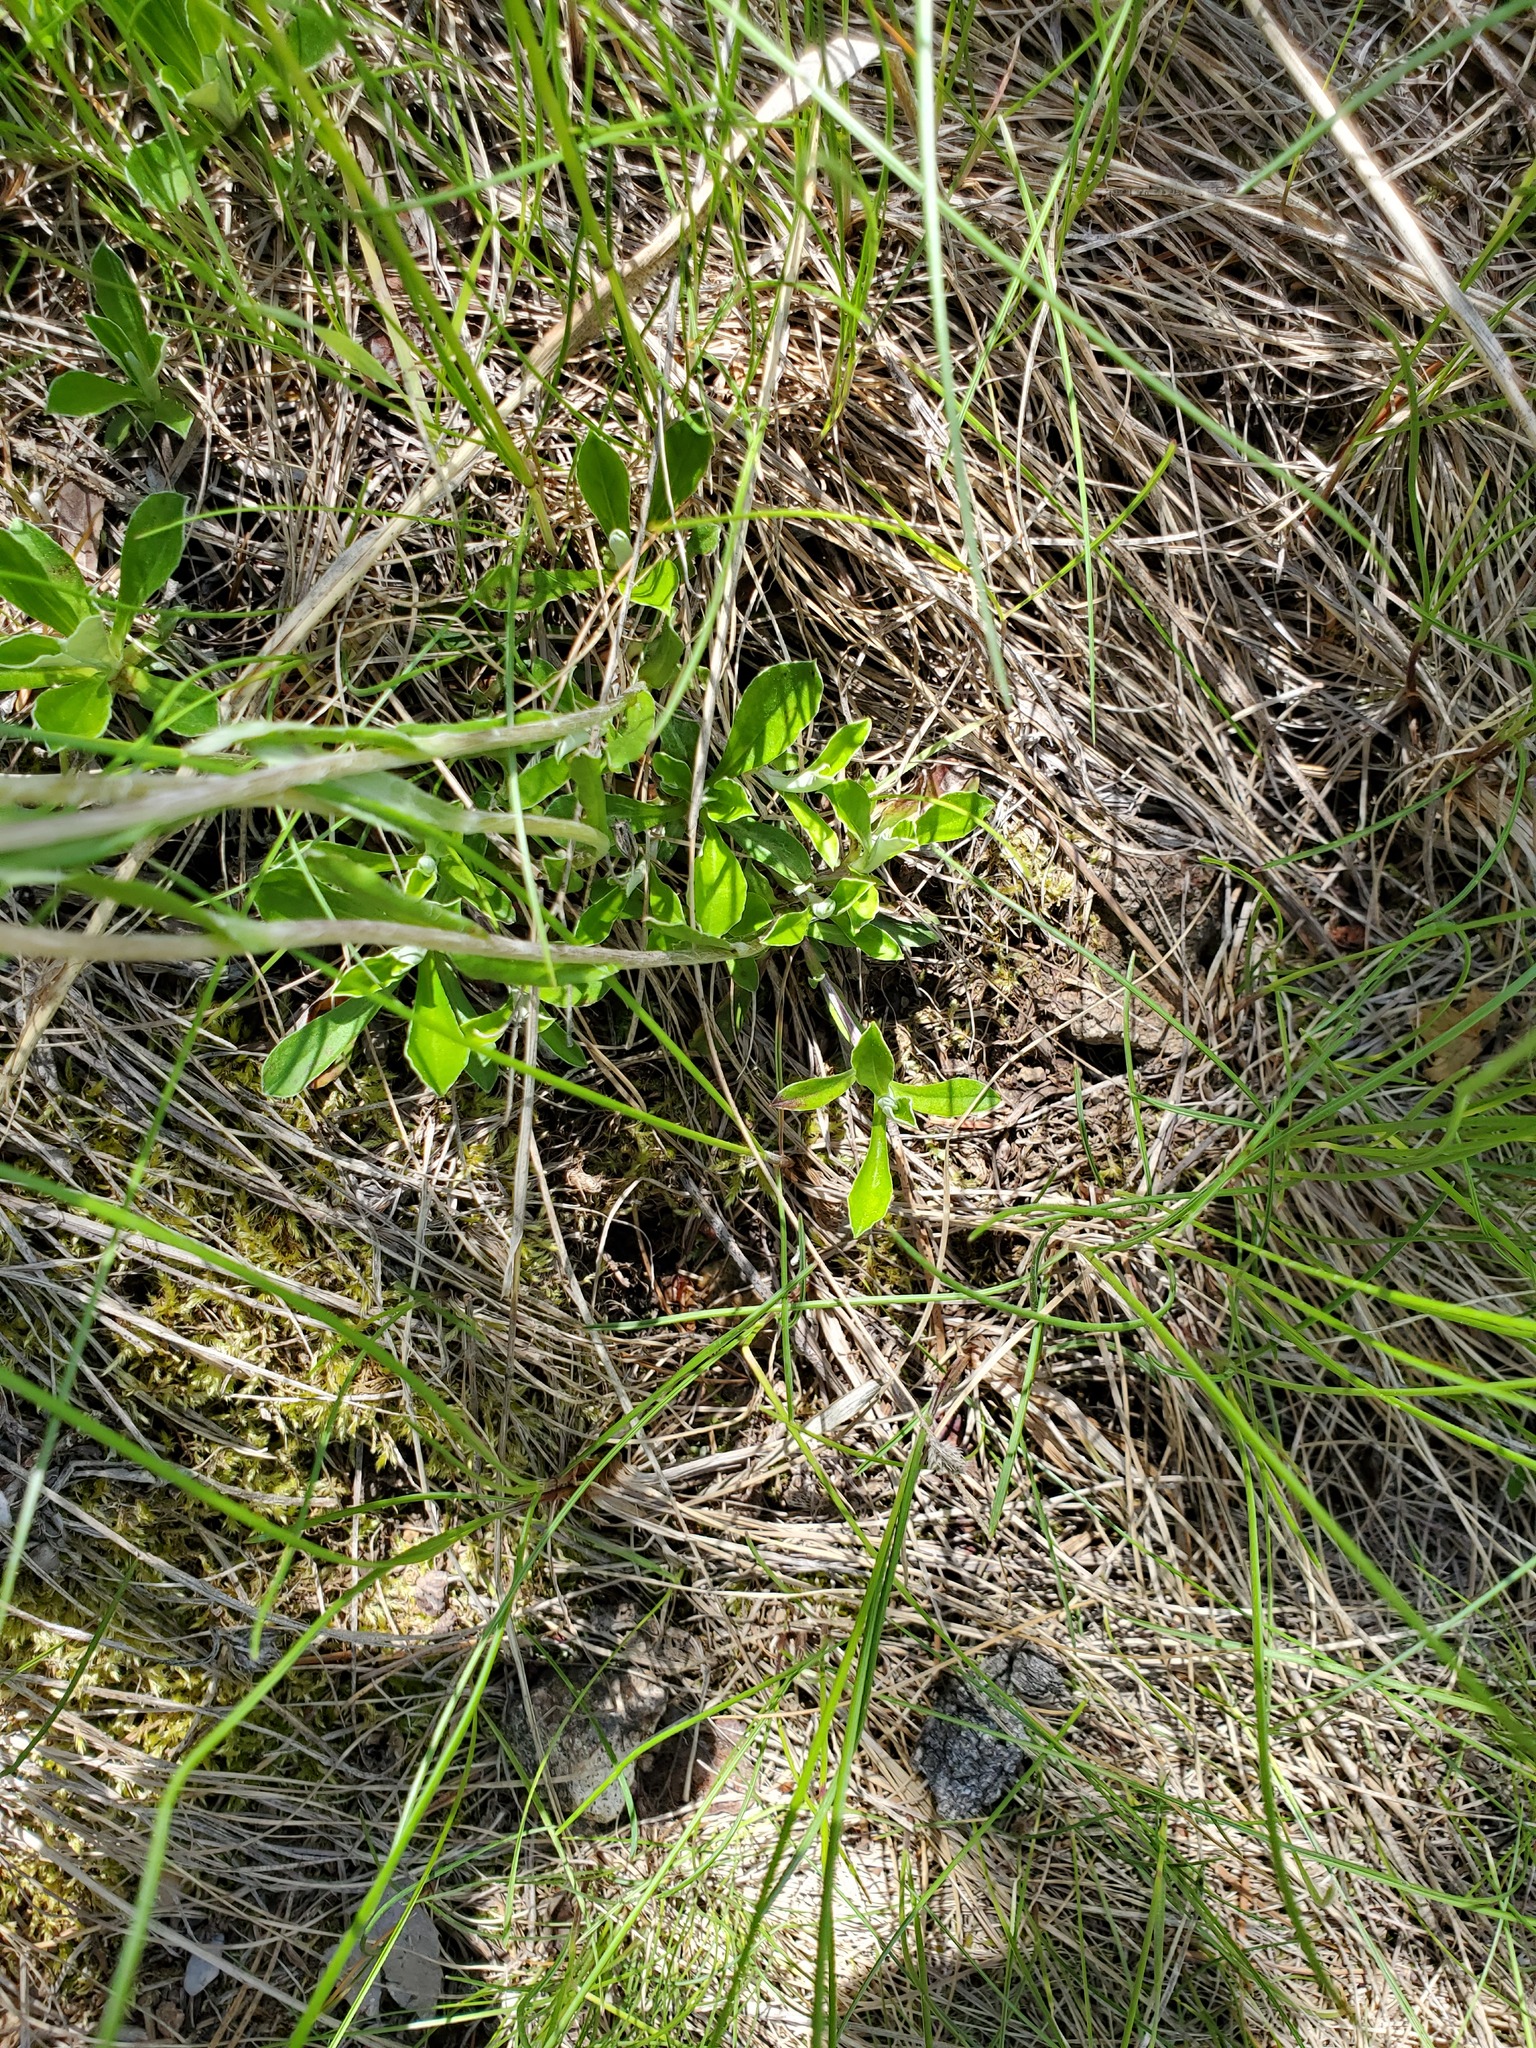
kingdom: Plantae
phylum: Tracheophyta
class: Magnoliopsida
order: Asterales
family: Asteraceae
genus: Antennaria
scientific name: Antennaria howellii
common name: Howell's pussytoes
